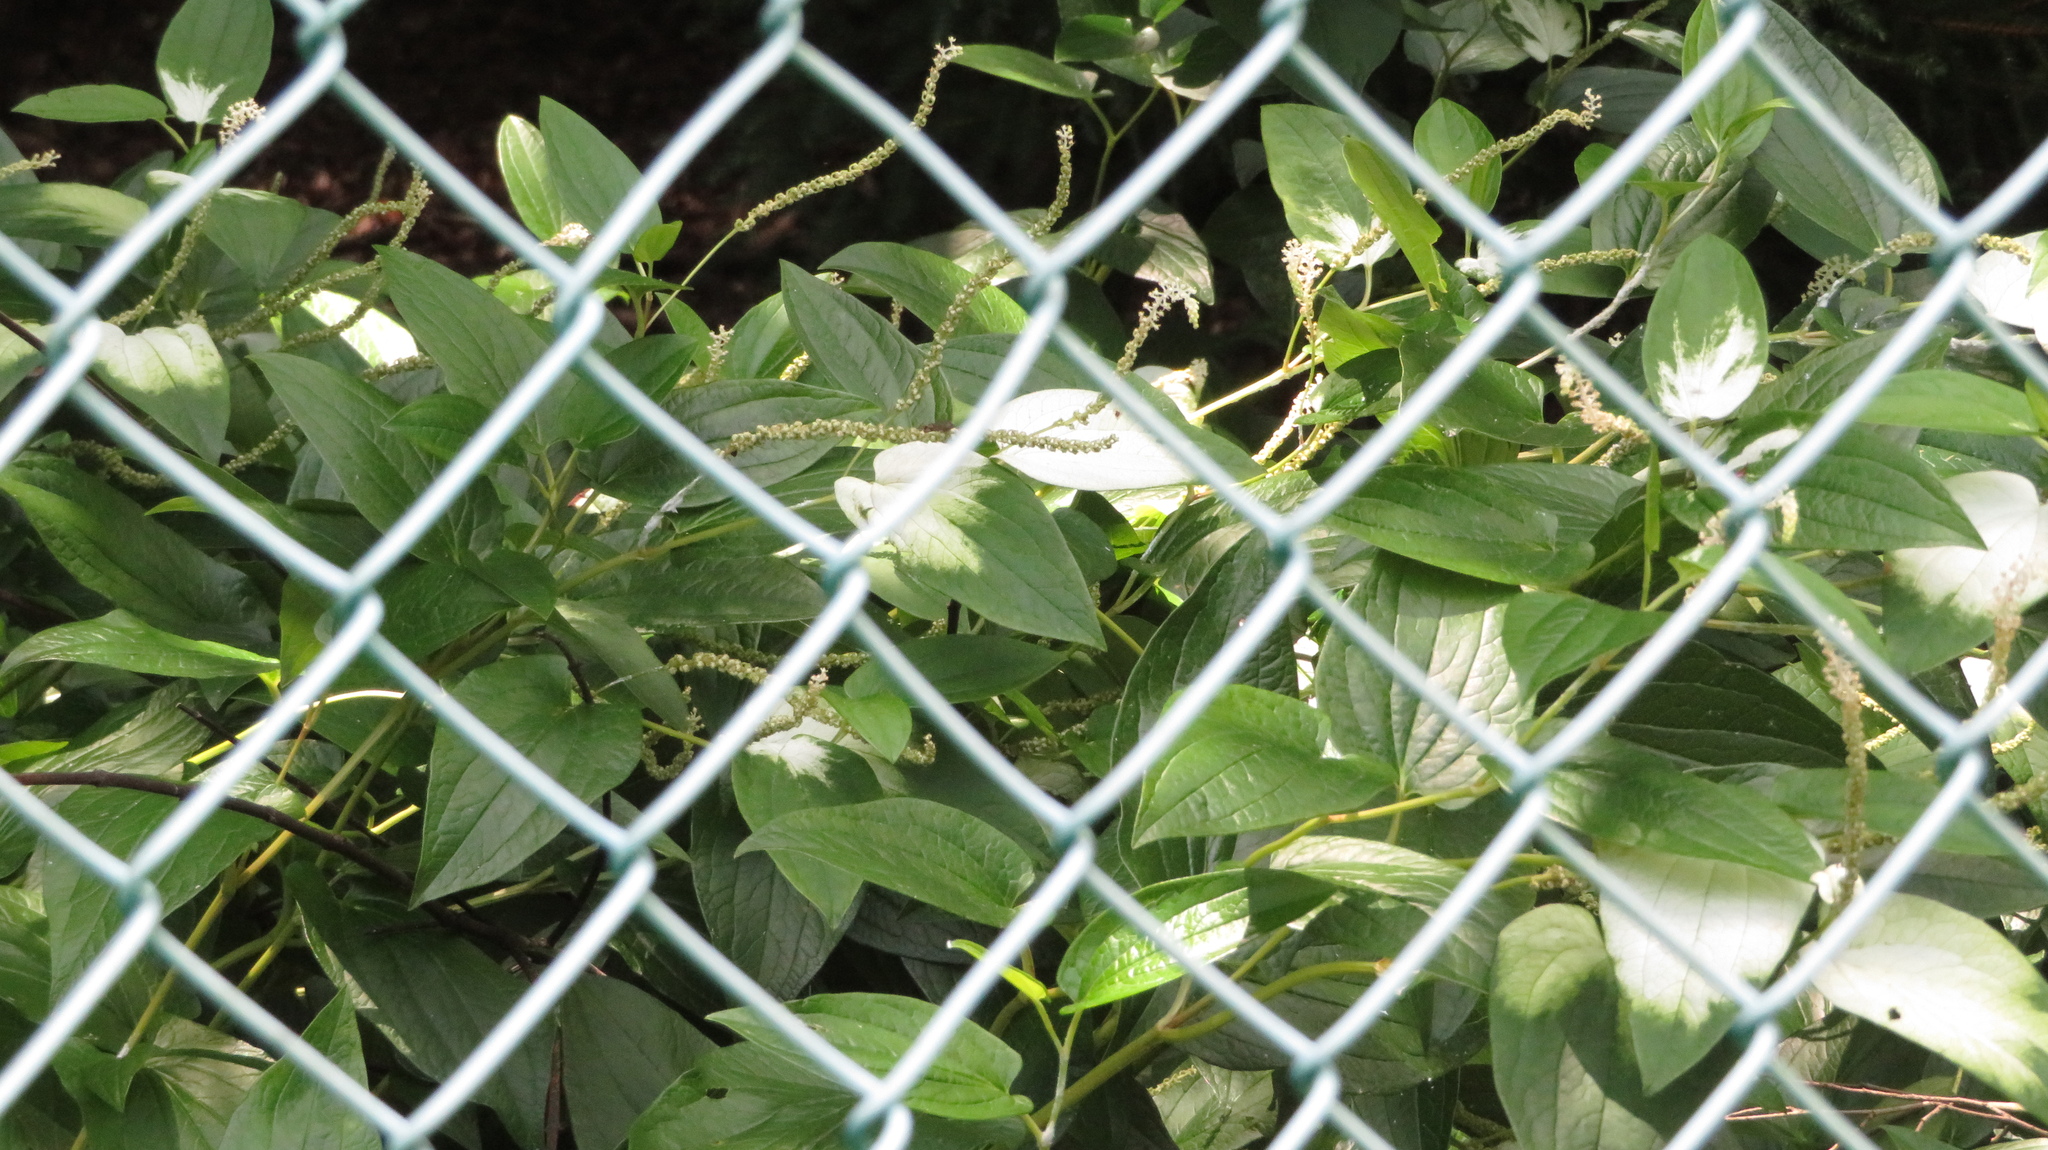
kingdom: Plantae
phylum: Tracheophyta
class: Magnoliopsida
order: Piperales
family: Saururaceae
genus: Saururus
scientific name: Saururus chinensis
